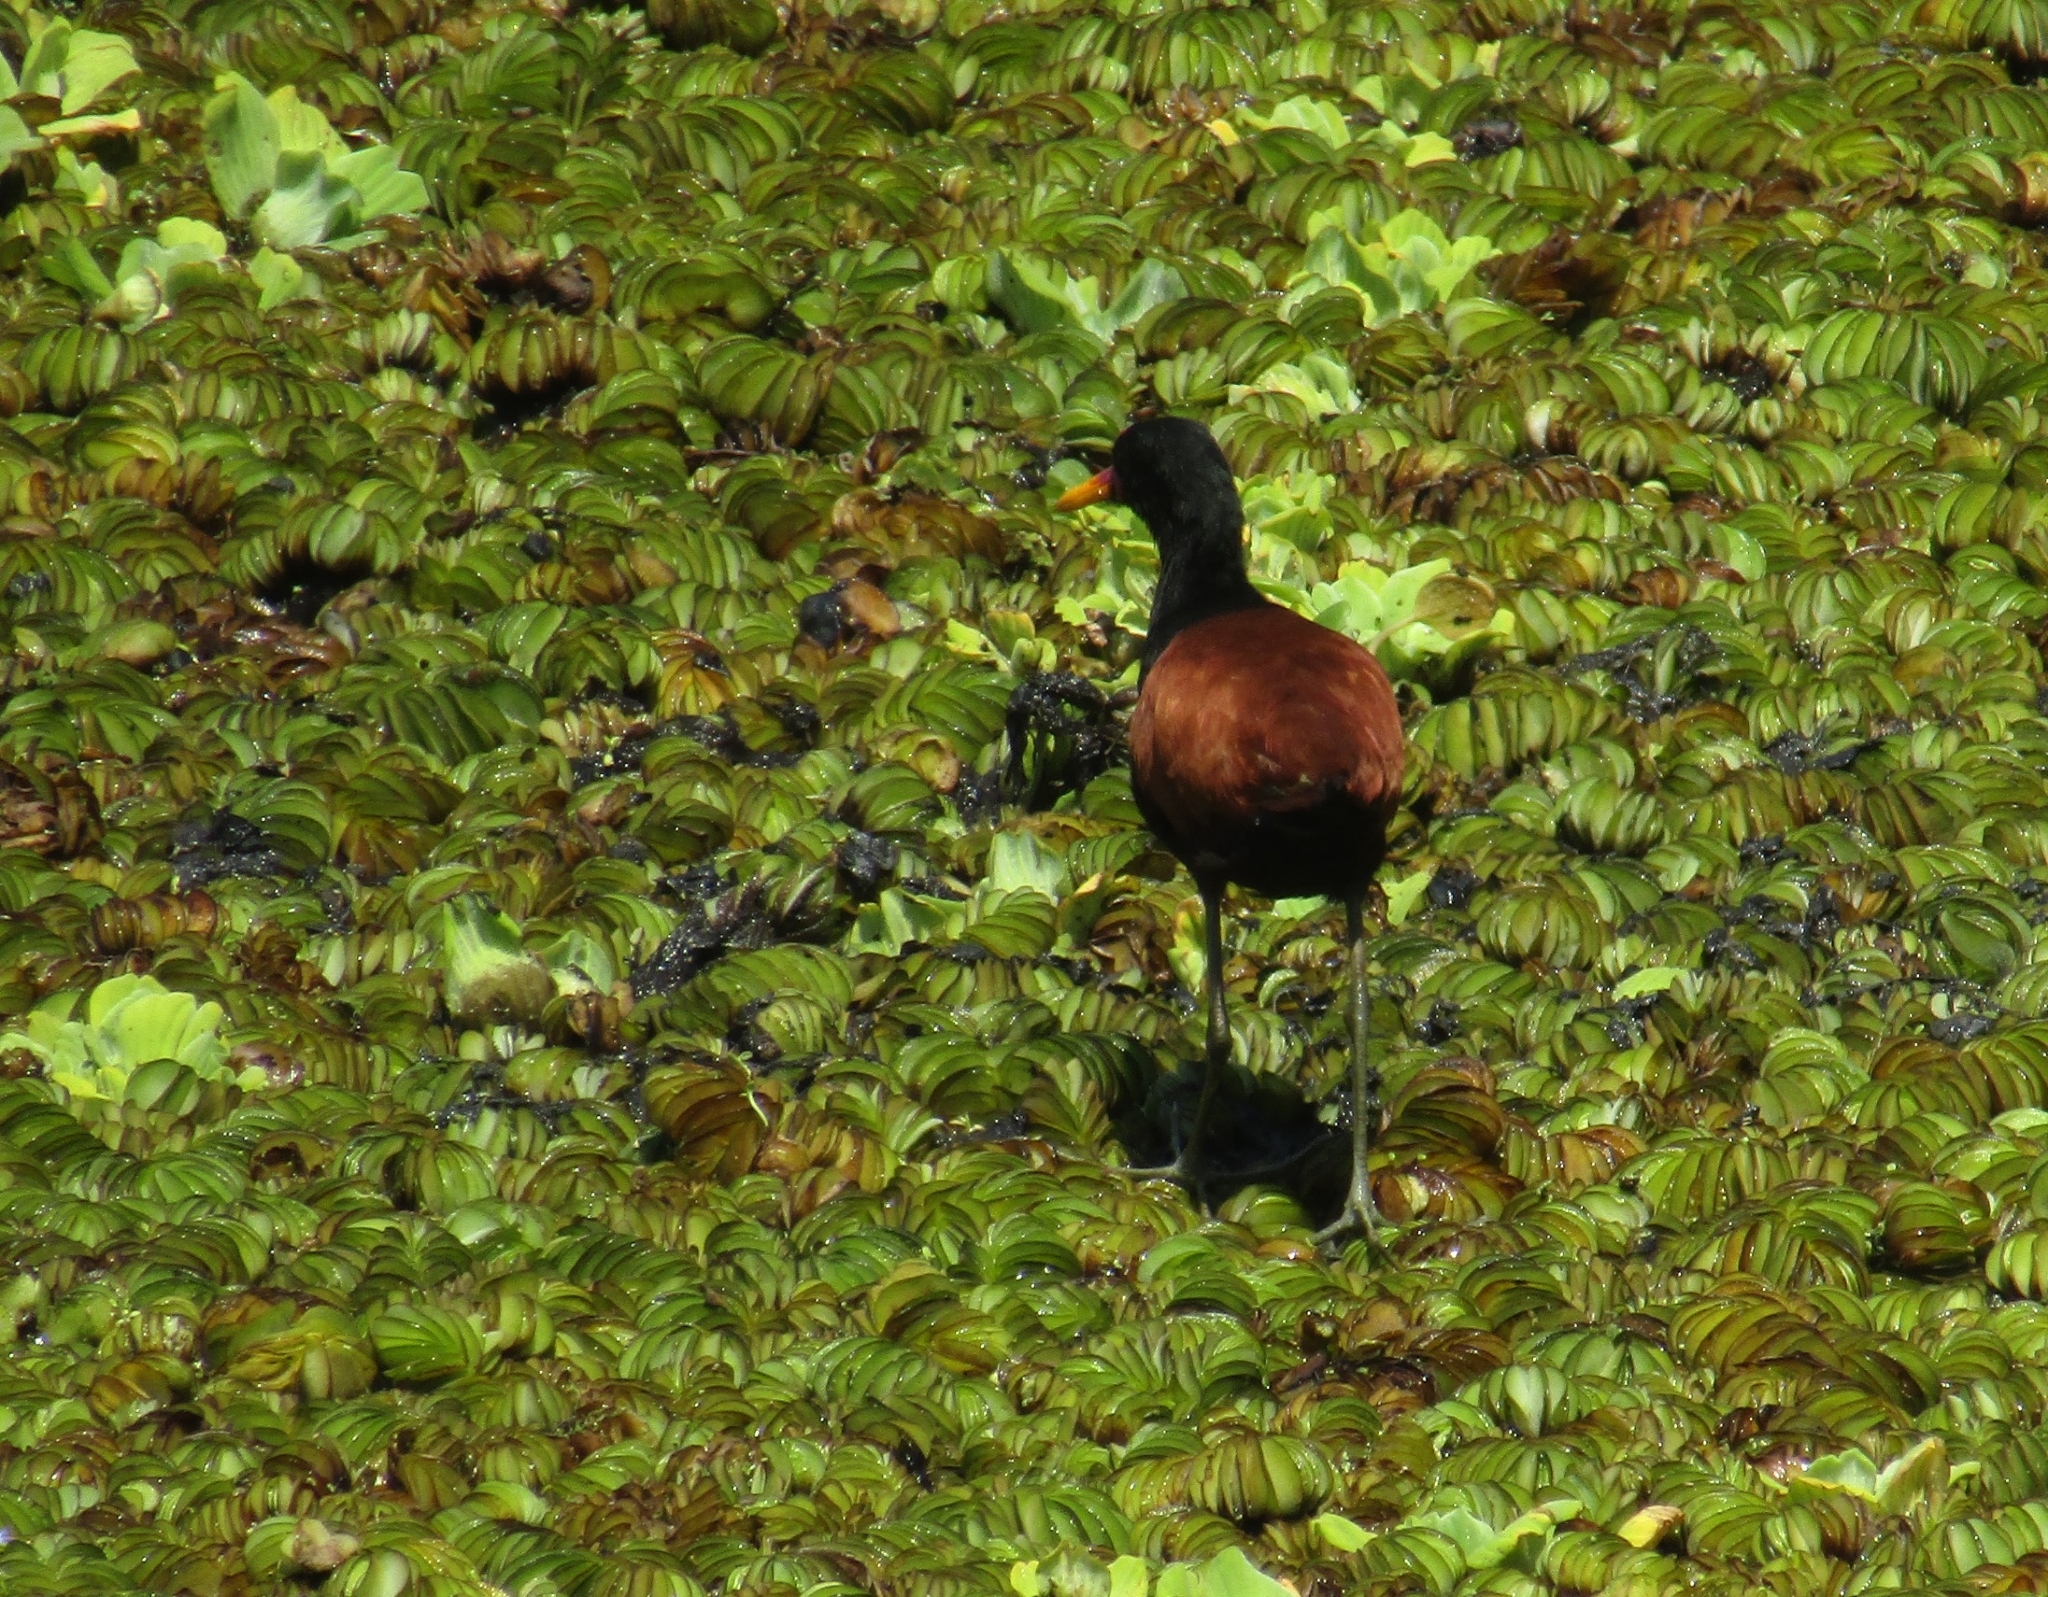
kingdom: Animalia
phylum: Chordata
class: Aves
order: Charadriiformes
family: Jacanidae
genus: Jacana
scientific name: Jacana jacana
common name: Wattled jacana
